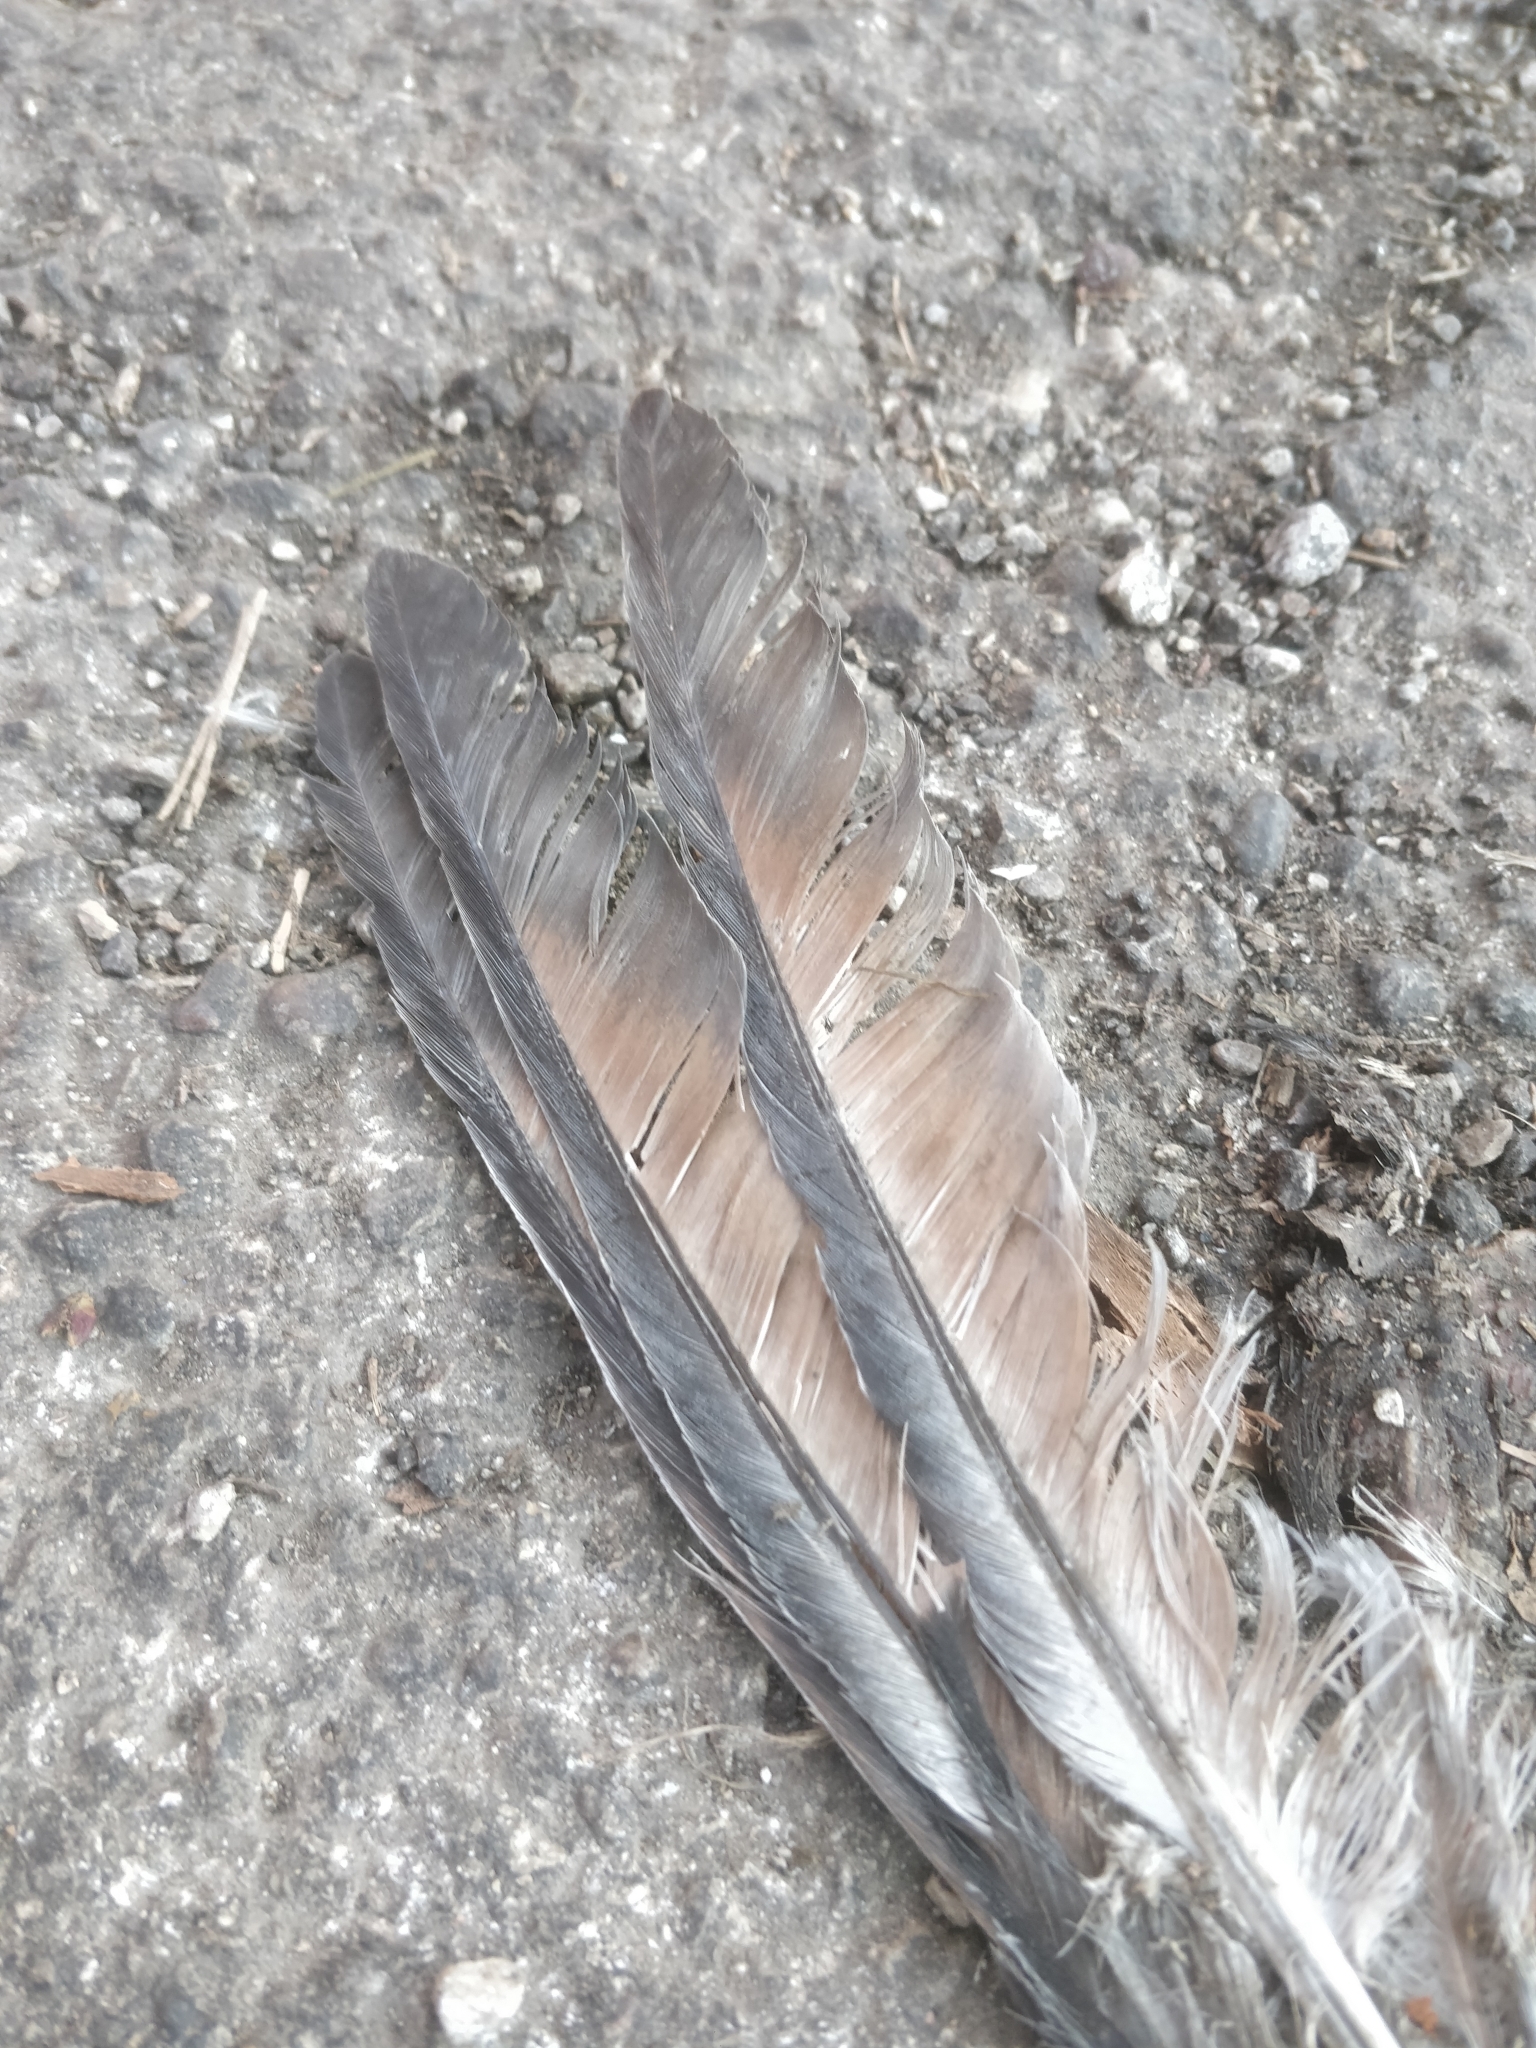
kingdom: Animalia
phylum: Chordata
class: Aves
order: Columbiformes
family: Columbidae
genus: Columba
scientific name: Columba livia
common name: Rock pigeon
